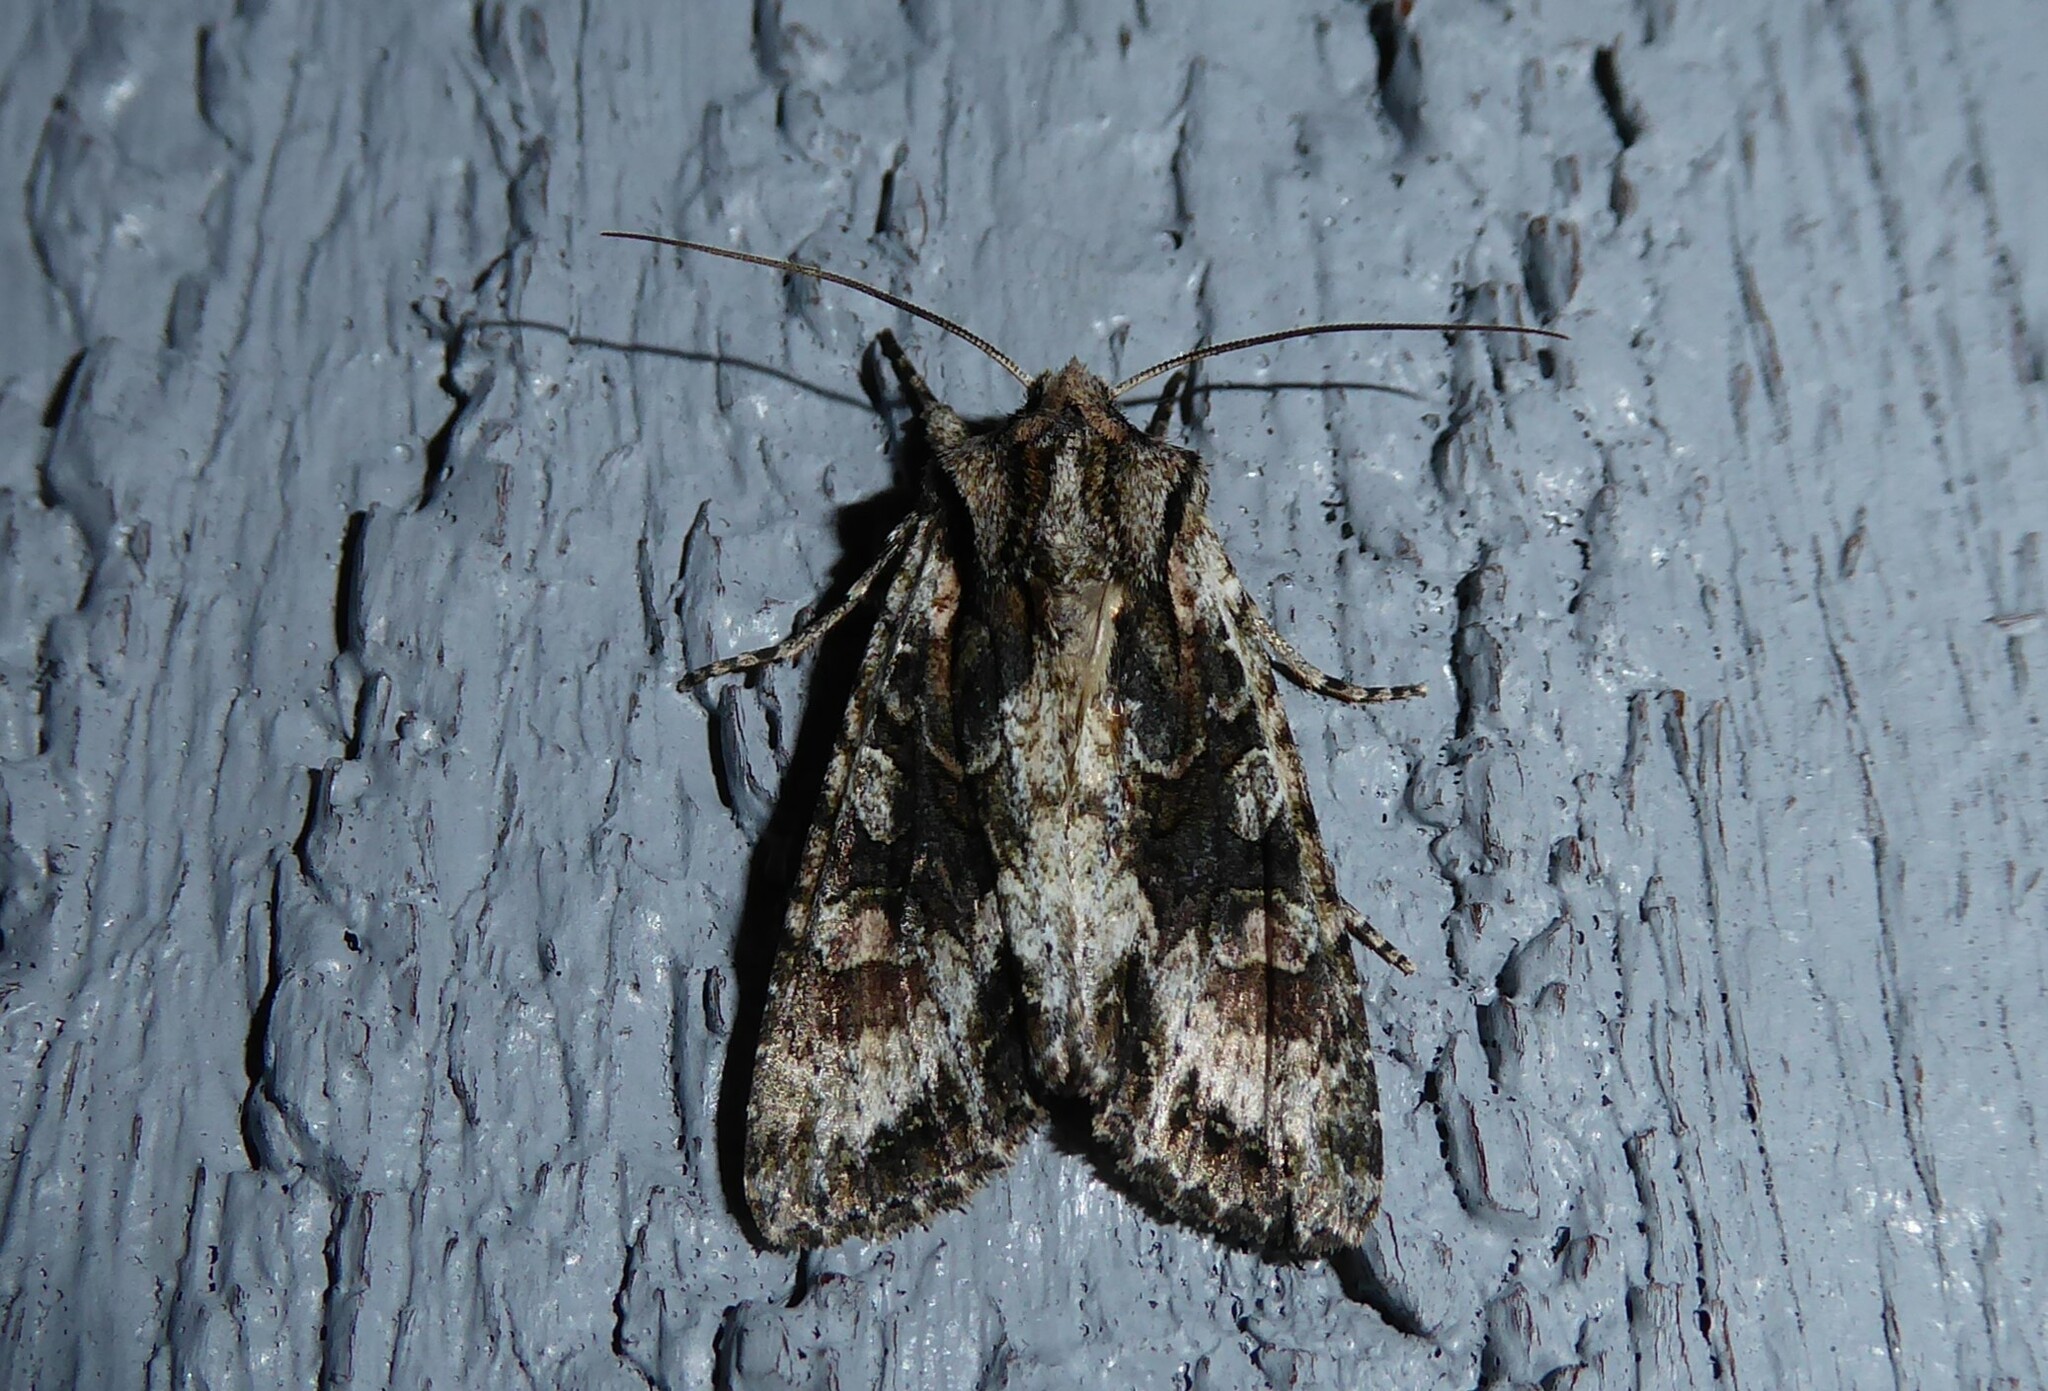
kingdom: Animalia
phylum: Arthropoda
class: Insecta
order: Lepidoptera
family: Noctuidae
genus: Ichneutica
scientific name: Ichneutica mutans
